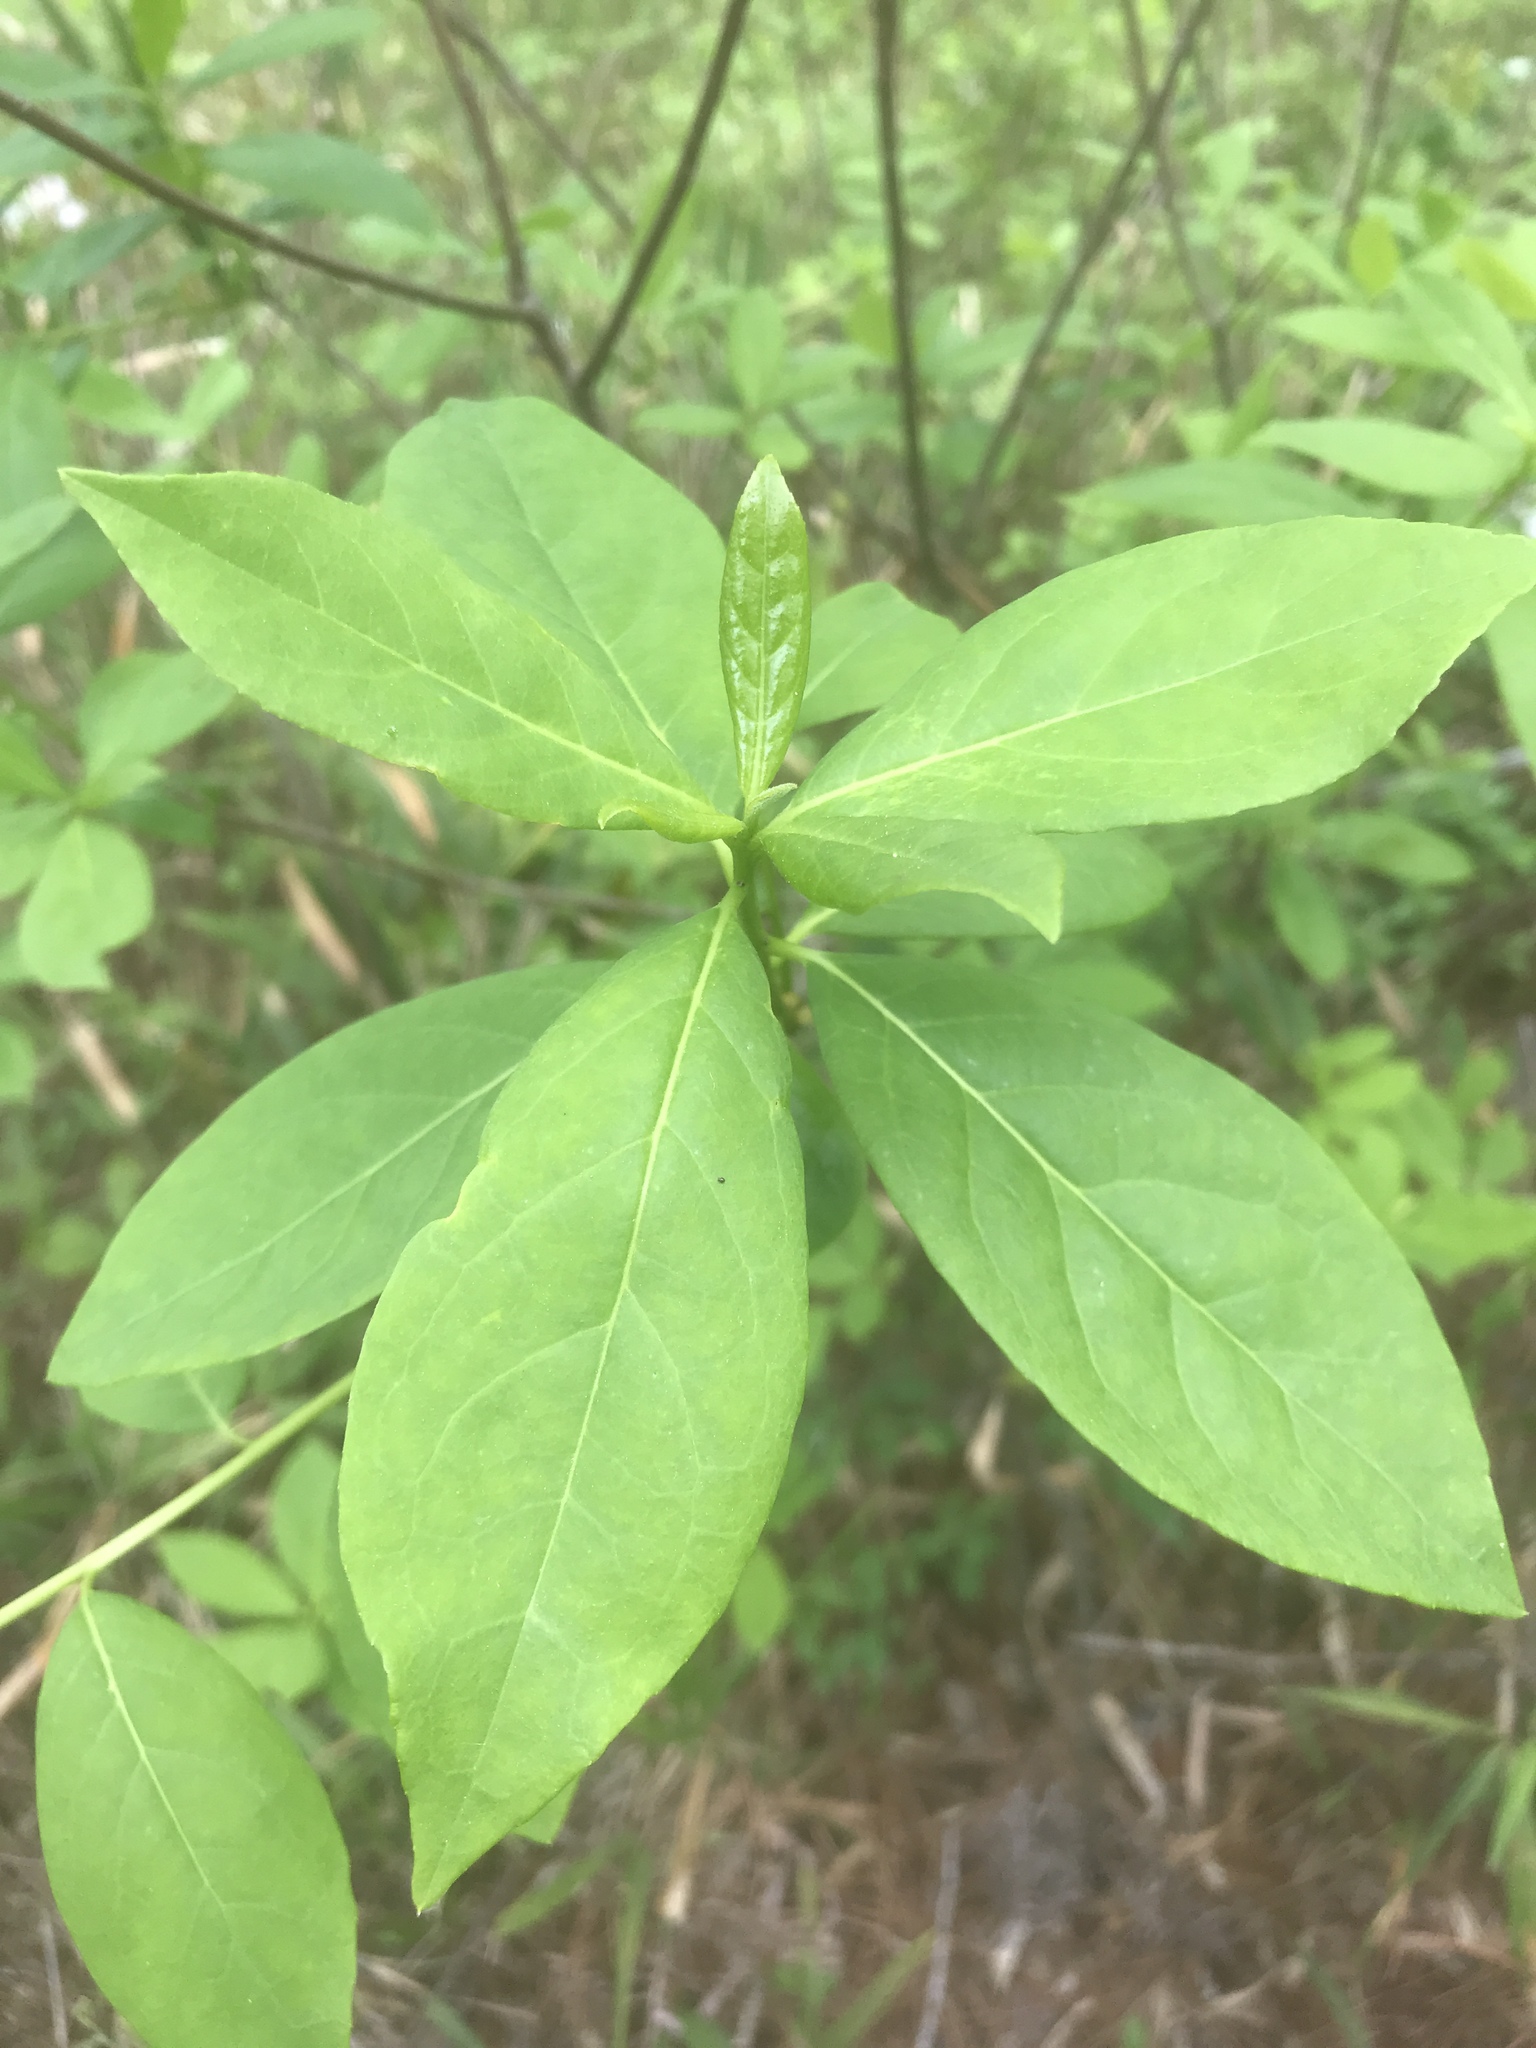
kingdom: Plantae
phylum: Tracheophyta
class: Magnoliopsida
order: Ericales
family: Symplocaceae
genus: Symplocos
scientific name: Symplocos tinctoria
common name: Horse-sugar
